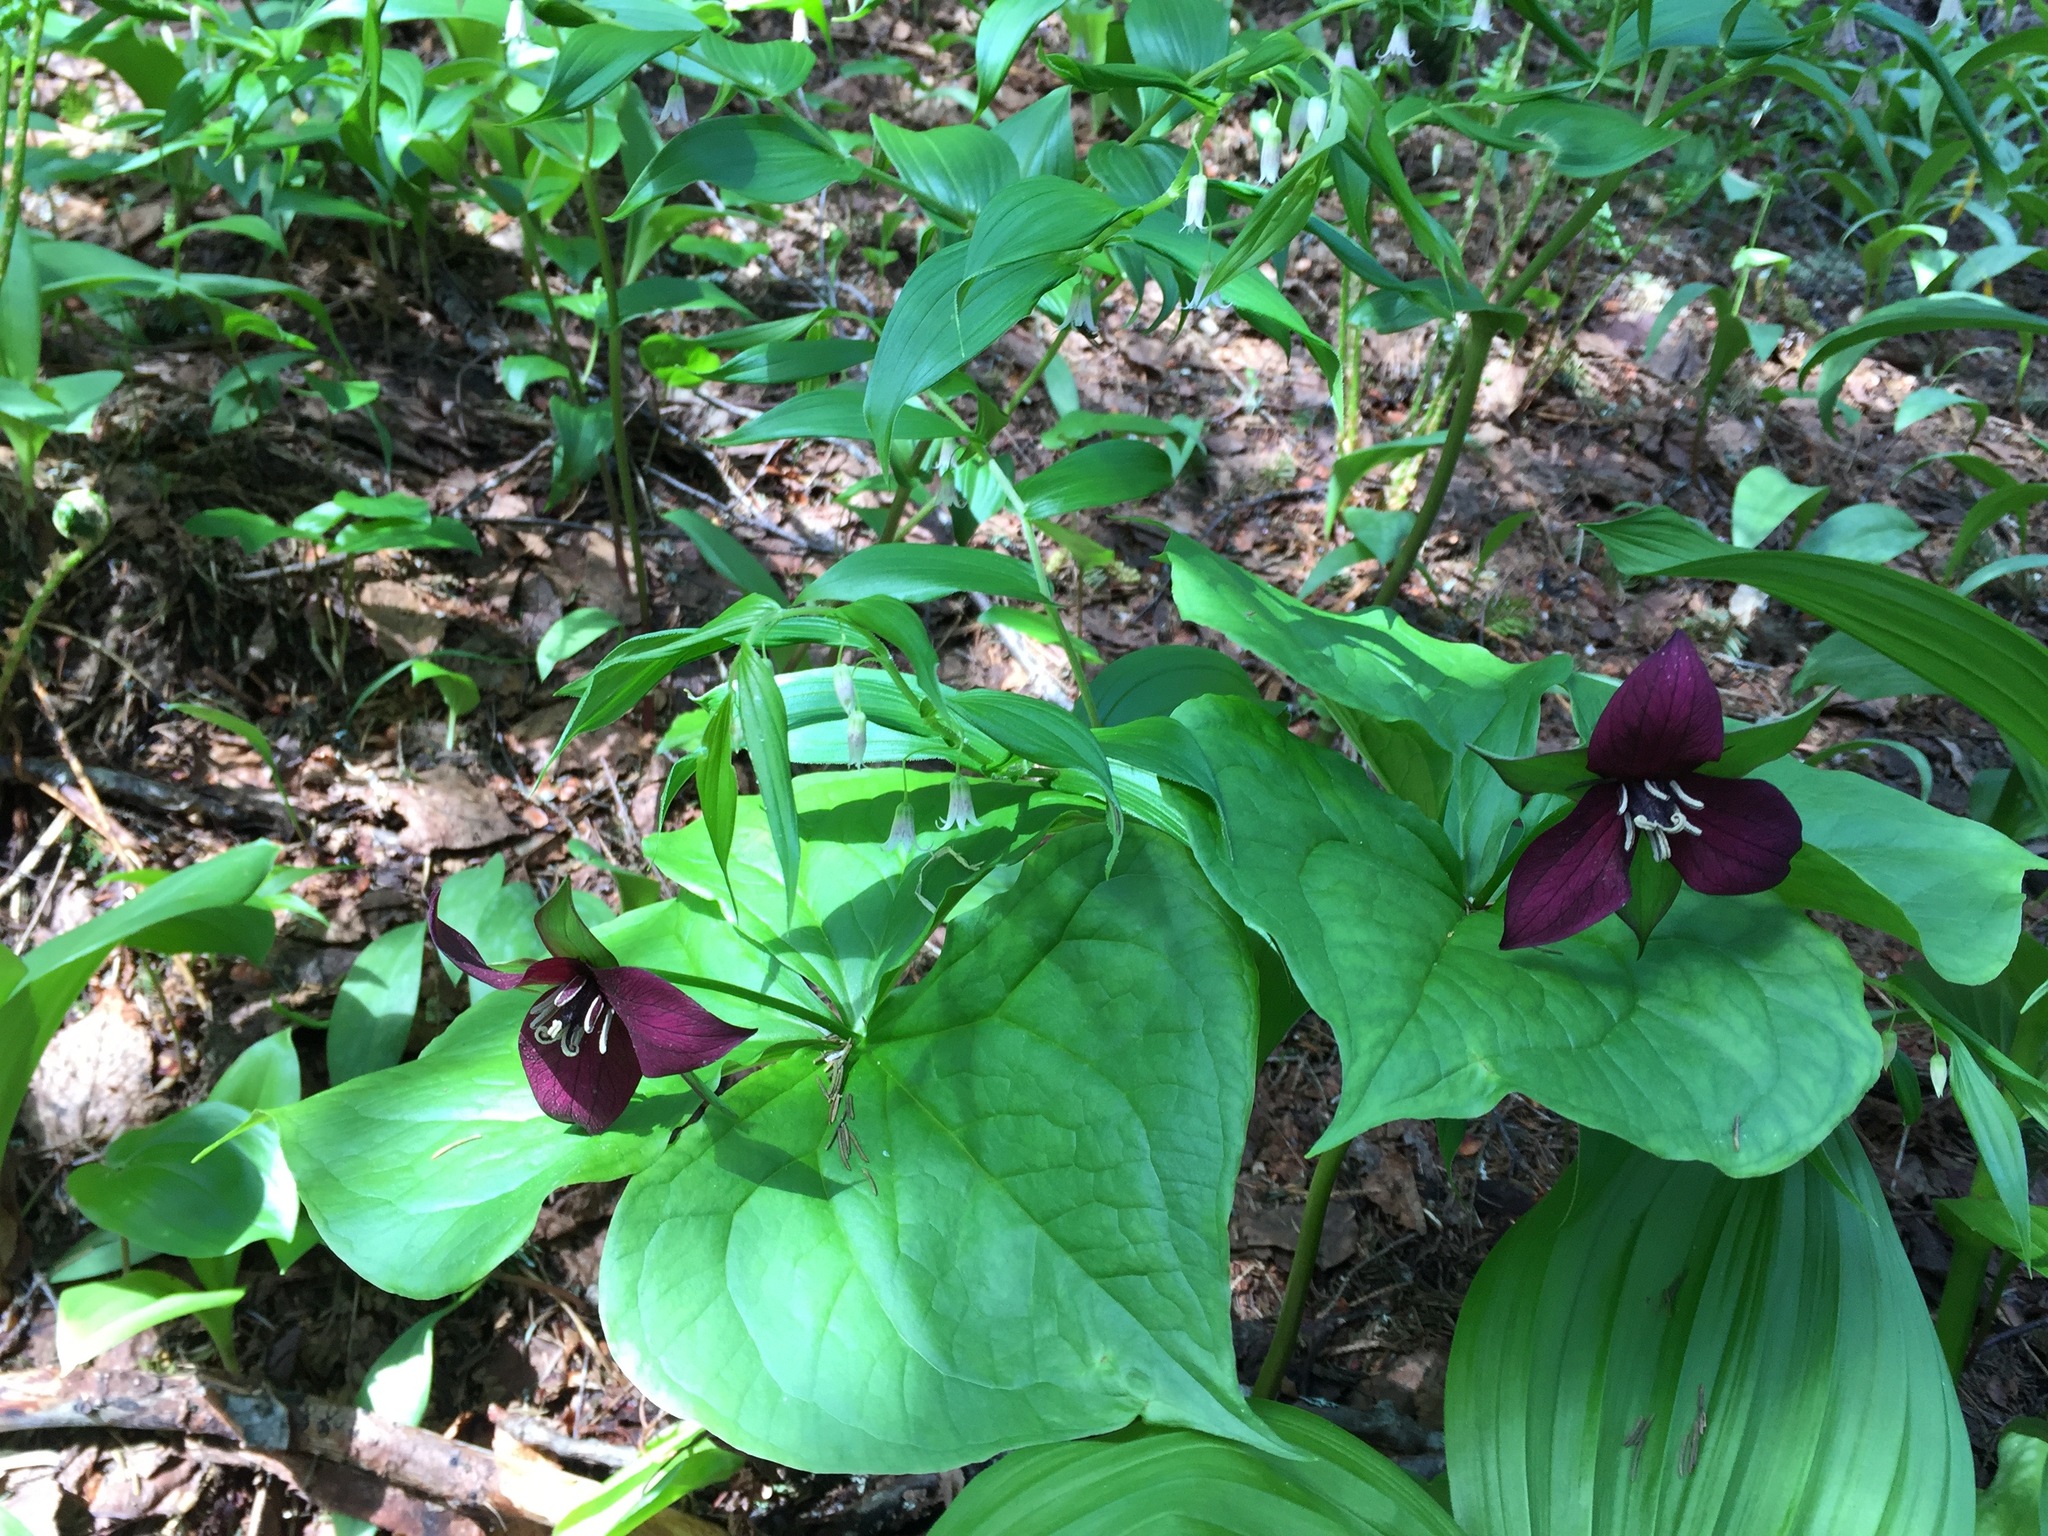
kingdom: Plantae
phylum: Tracheophyta
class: Liliopsida
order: Liliales
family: Melanthiaceae
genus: Trillium
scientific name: Trillium erectum
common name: Purple trillium
